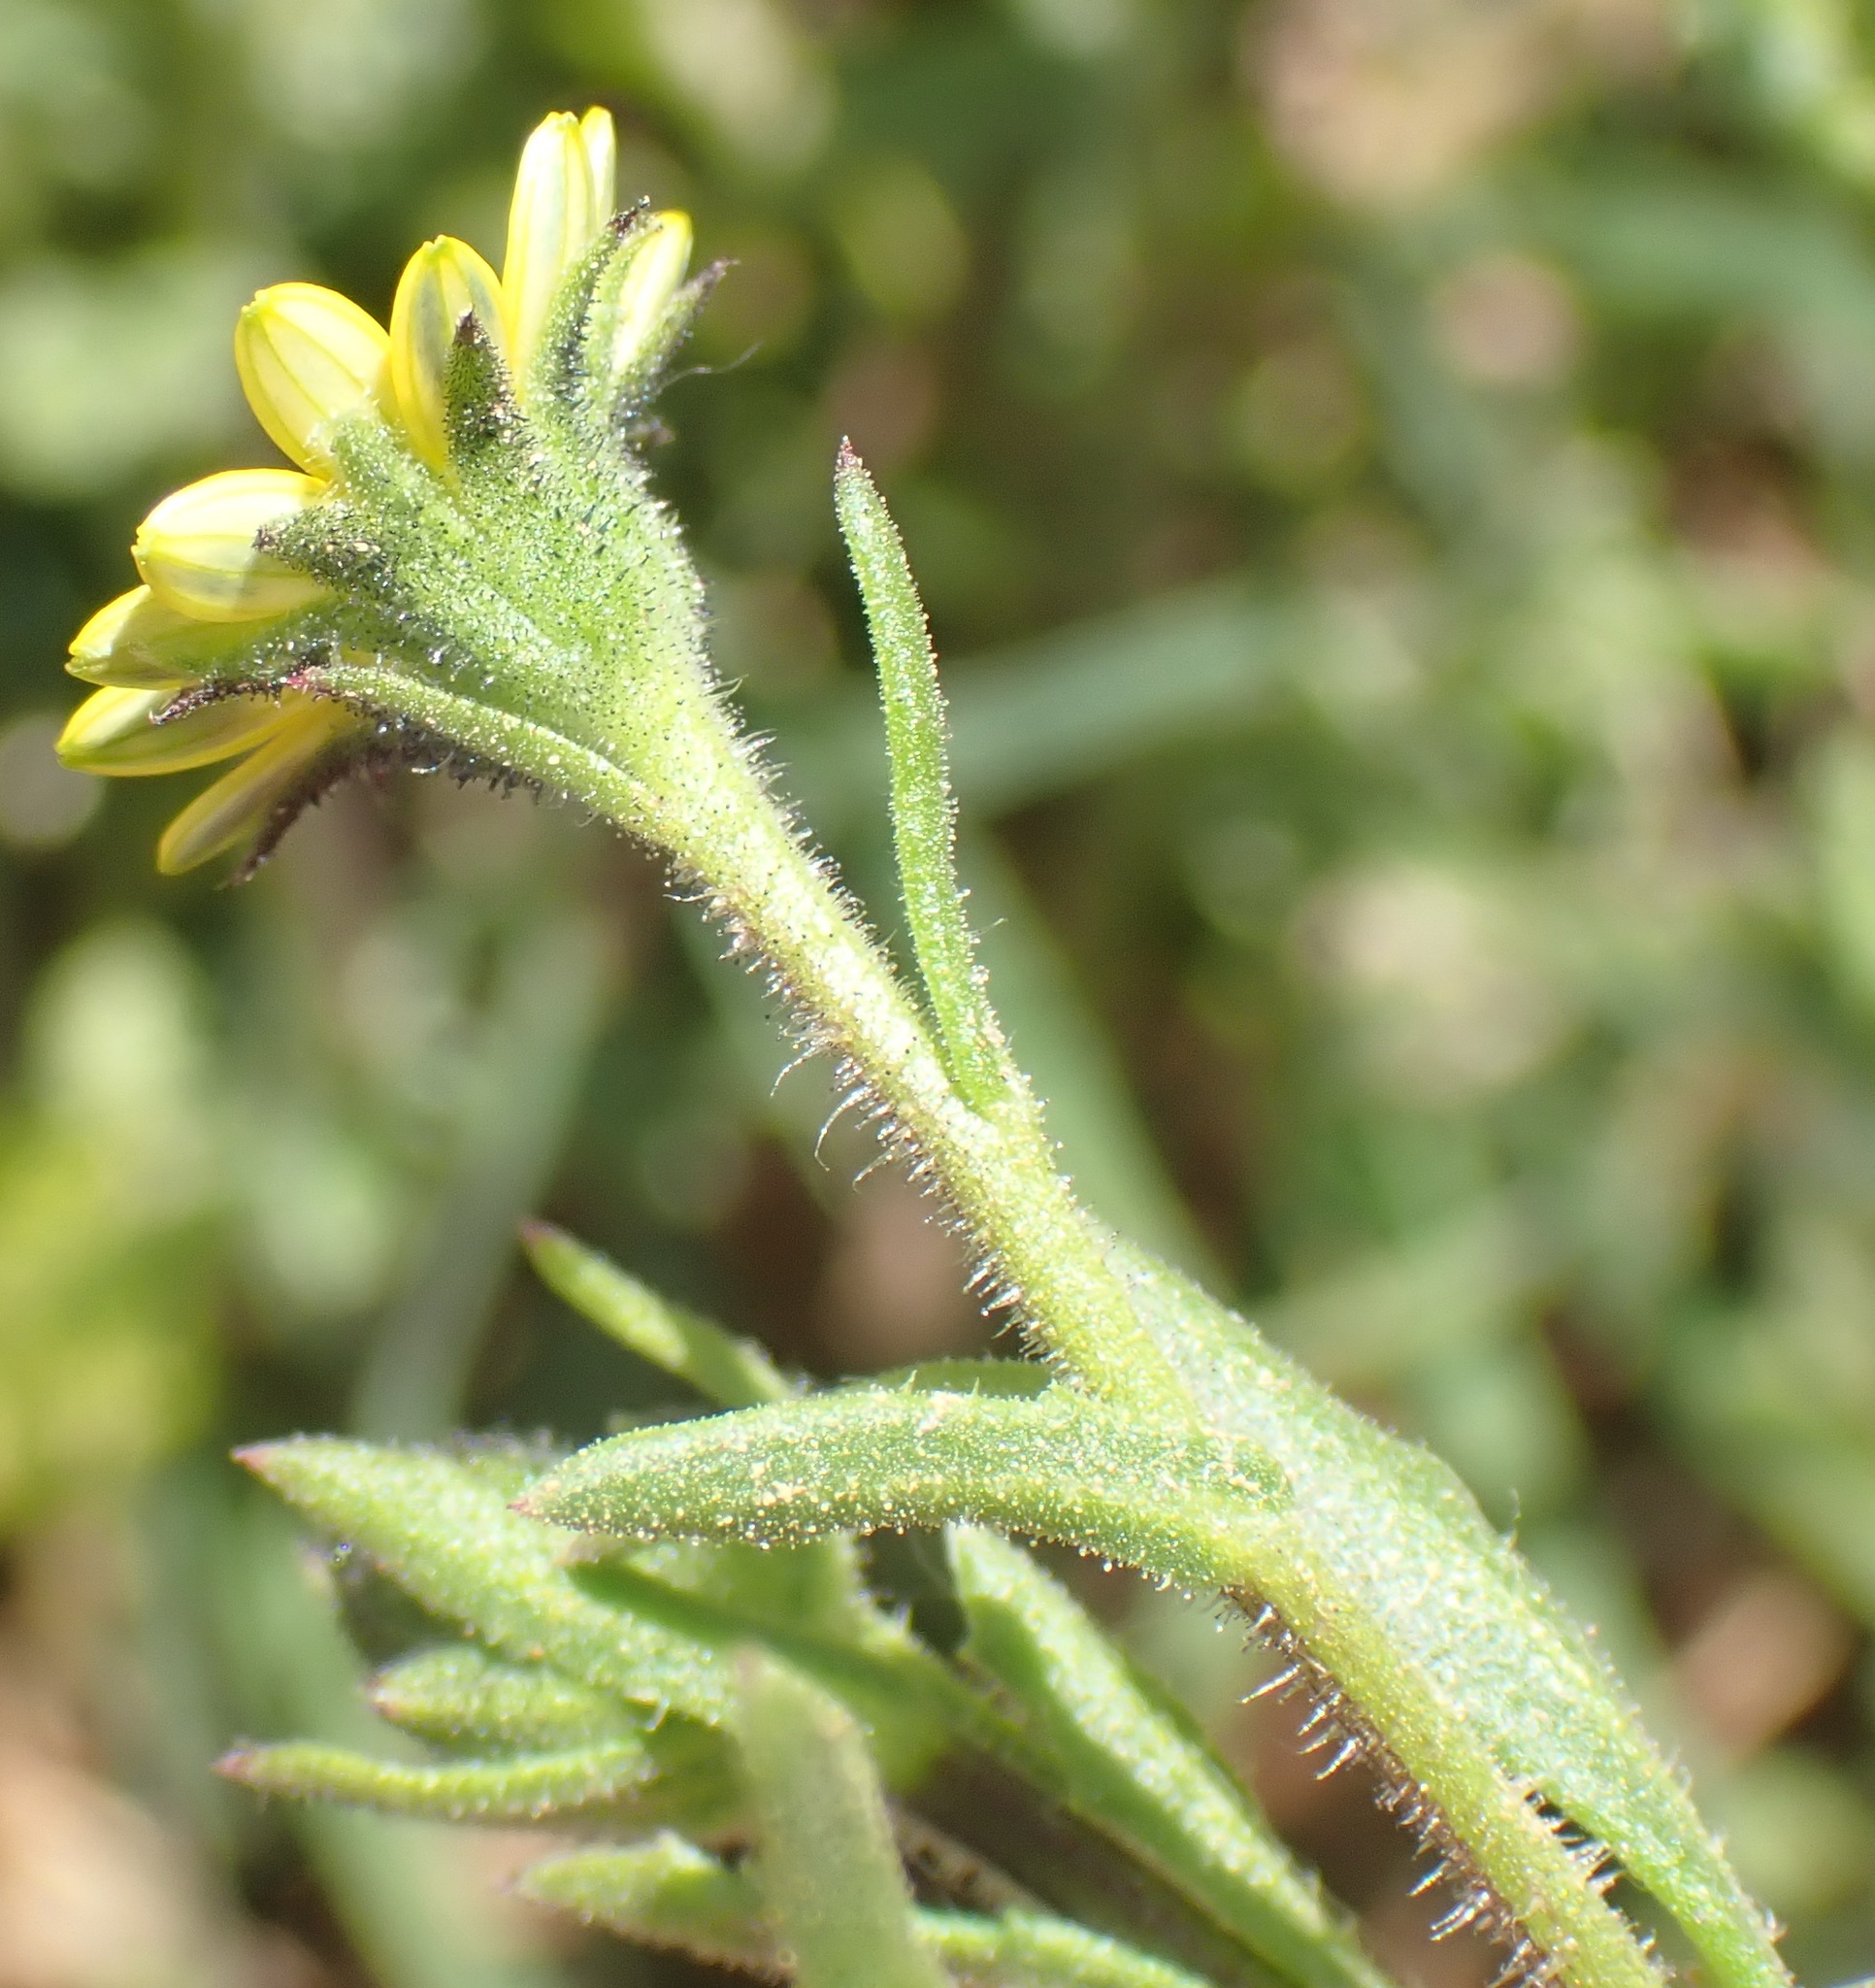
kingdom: Plantae
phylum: Tracheophyta
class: Magnoliopsida
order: Asterales
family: Asteraceae
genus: Osteospermum
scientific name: Osteospermum calendulaceum
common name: Stinking roger
